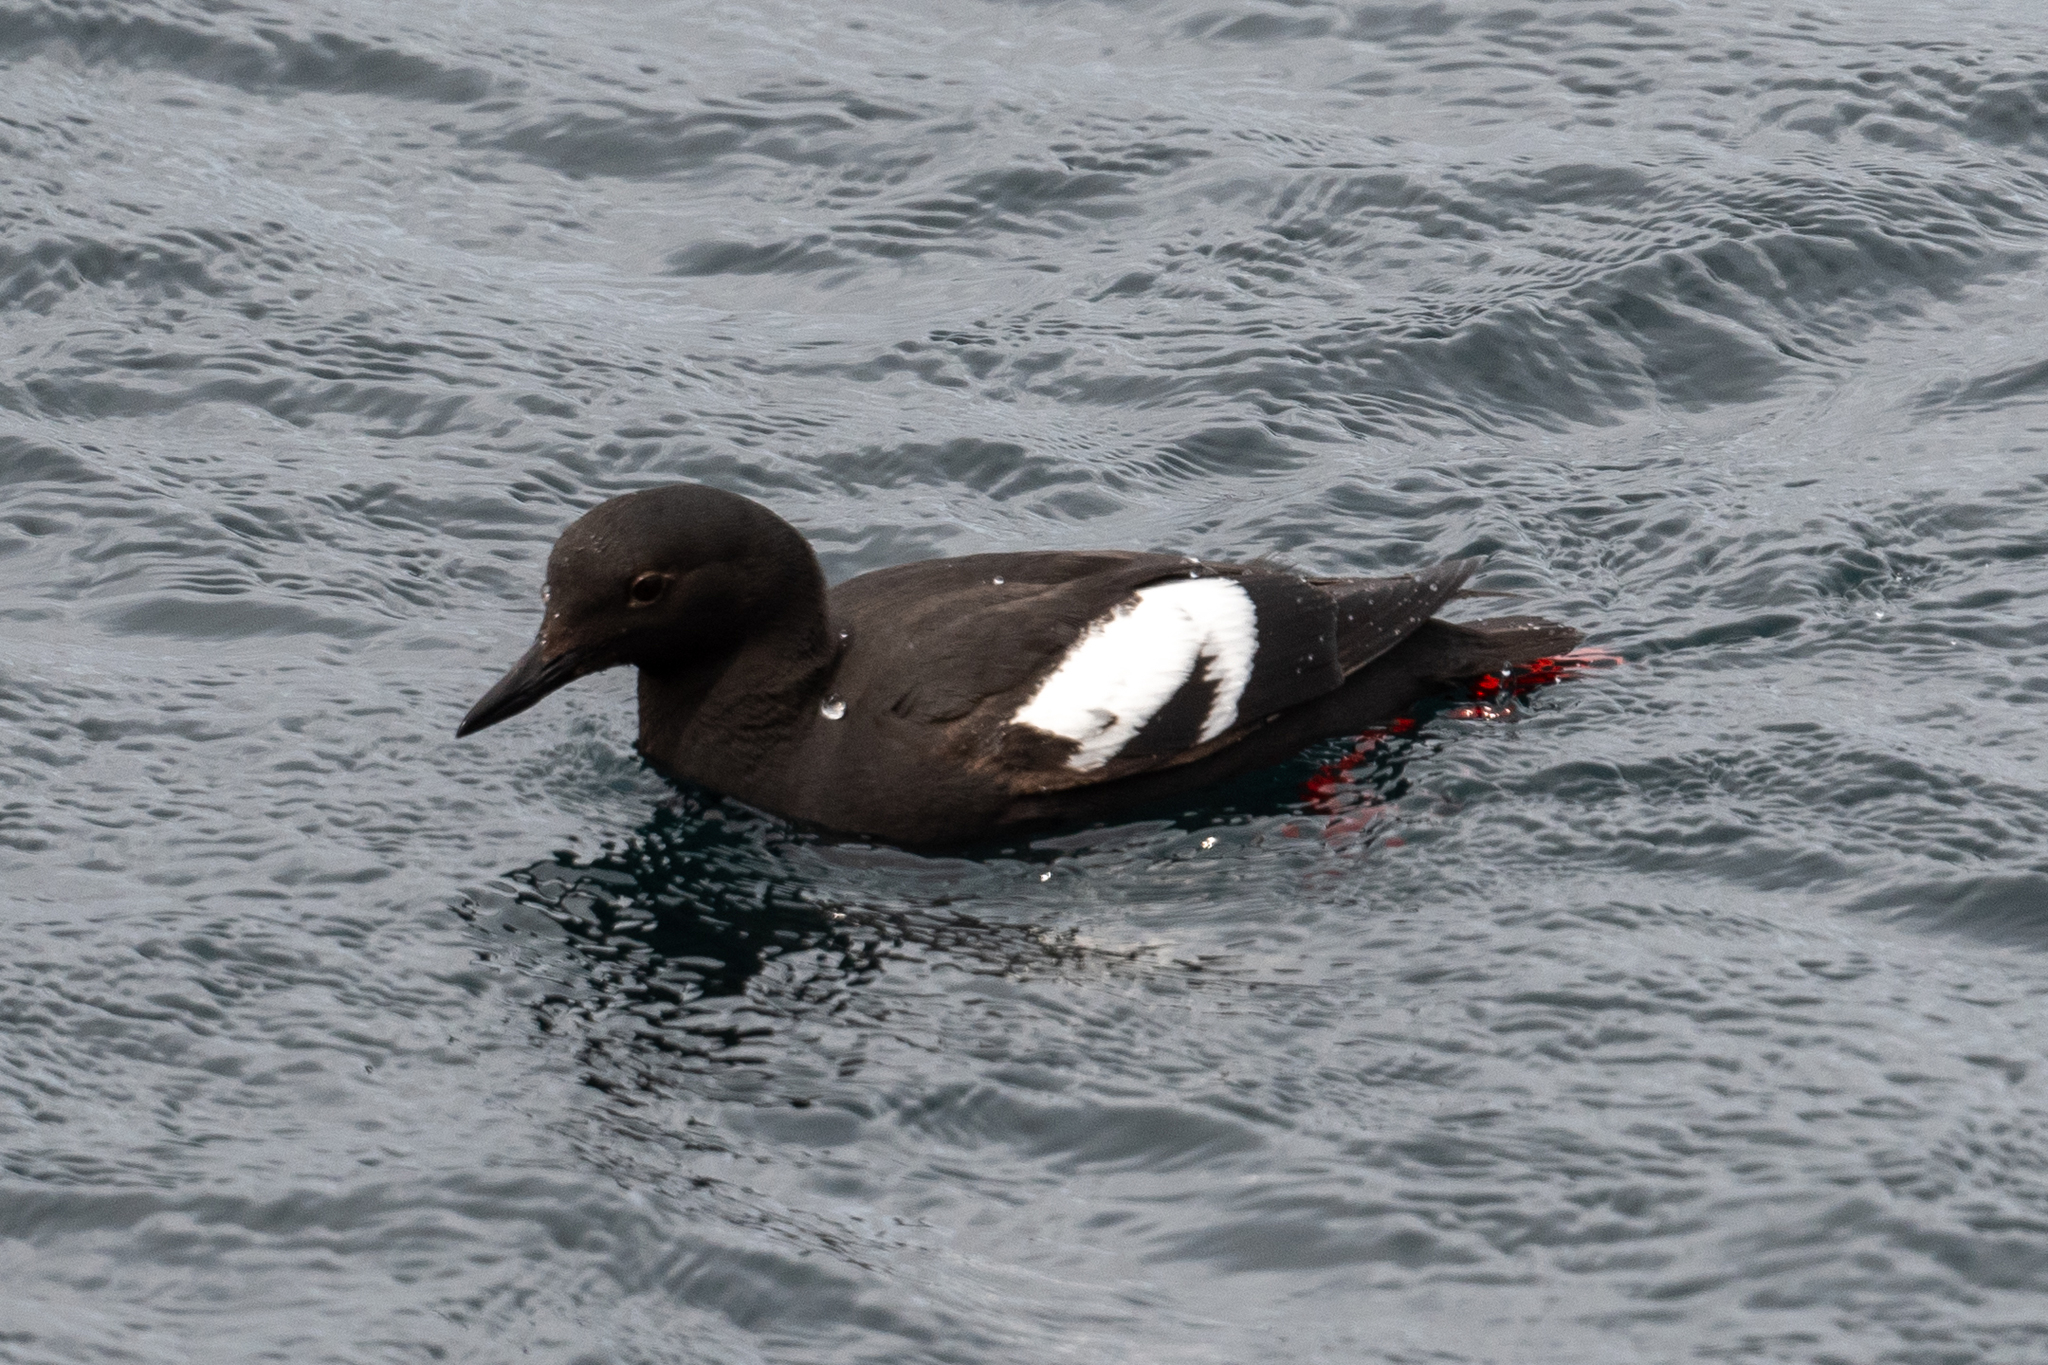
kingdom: Animalia
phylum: Chordata
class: Aves
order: Charadriiformes
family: Alcidae
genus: Cepphus
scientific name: Cepphus columba
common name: Pigeon guillemot
